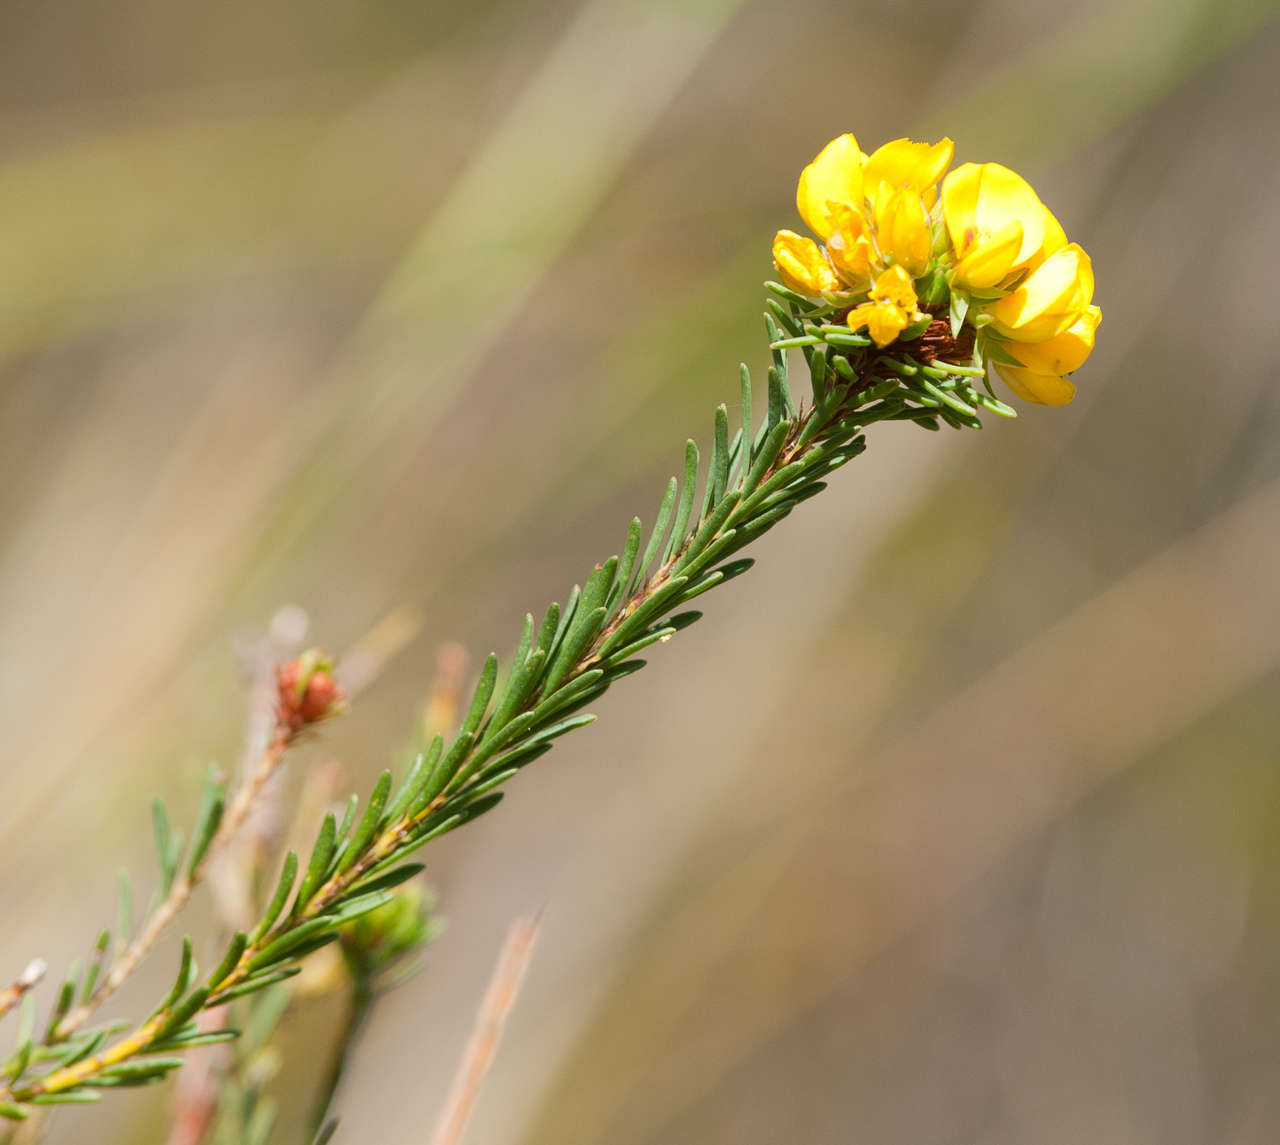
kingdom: Plantae
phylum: Tracheophyta
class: Magnoliopsida
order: Fabales
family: Fabaceae
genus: Pultenaea
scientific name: Pultenaea weindorferi
